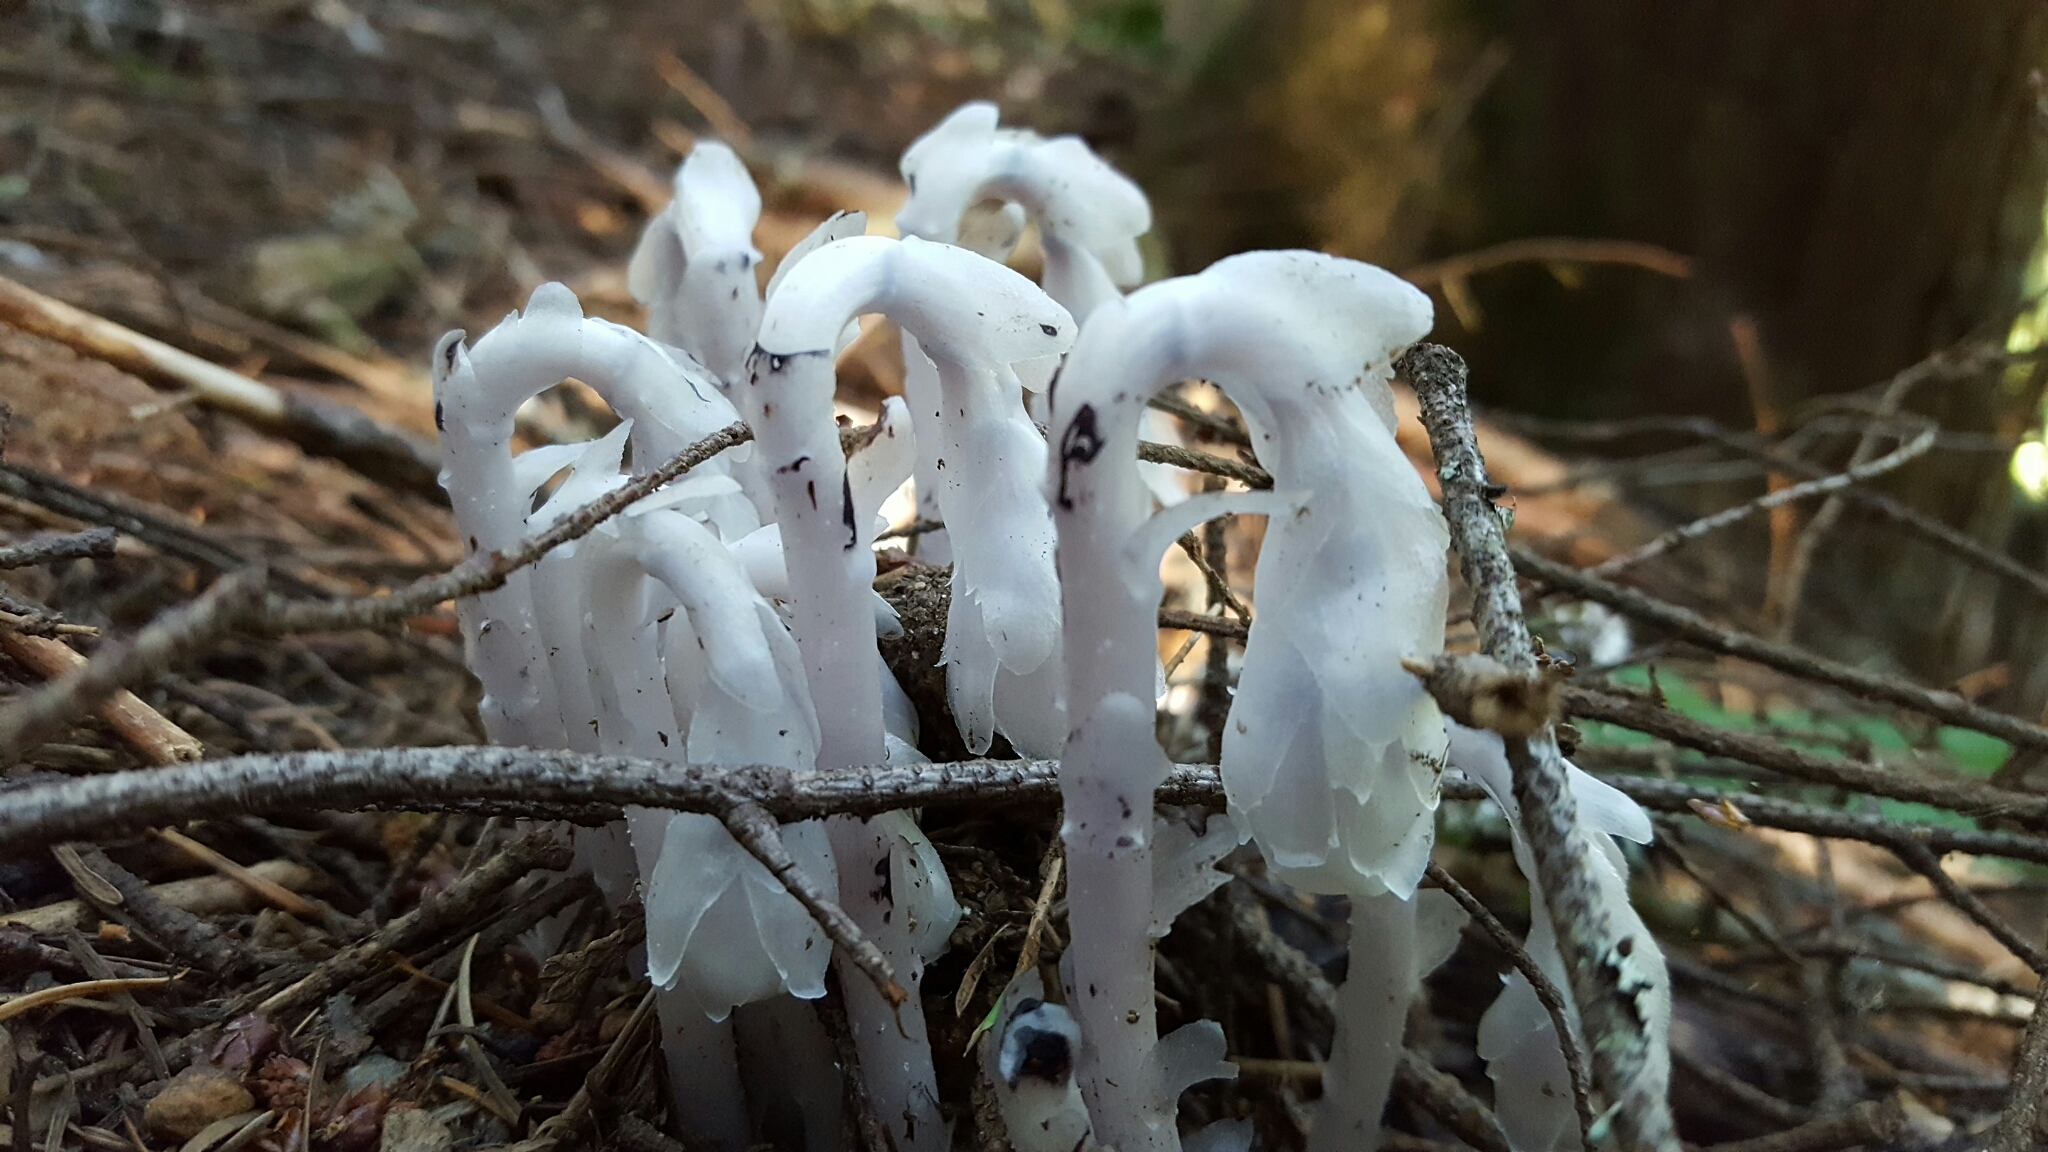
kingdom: Plantae
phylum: Tracheophyta
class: Magnoliopsida
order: Ericales
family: Ericaceae
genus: Monotropa
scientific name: Monotropa uniflora
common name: Convulsion root
